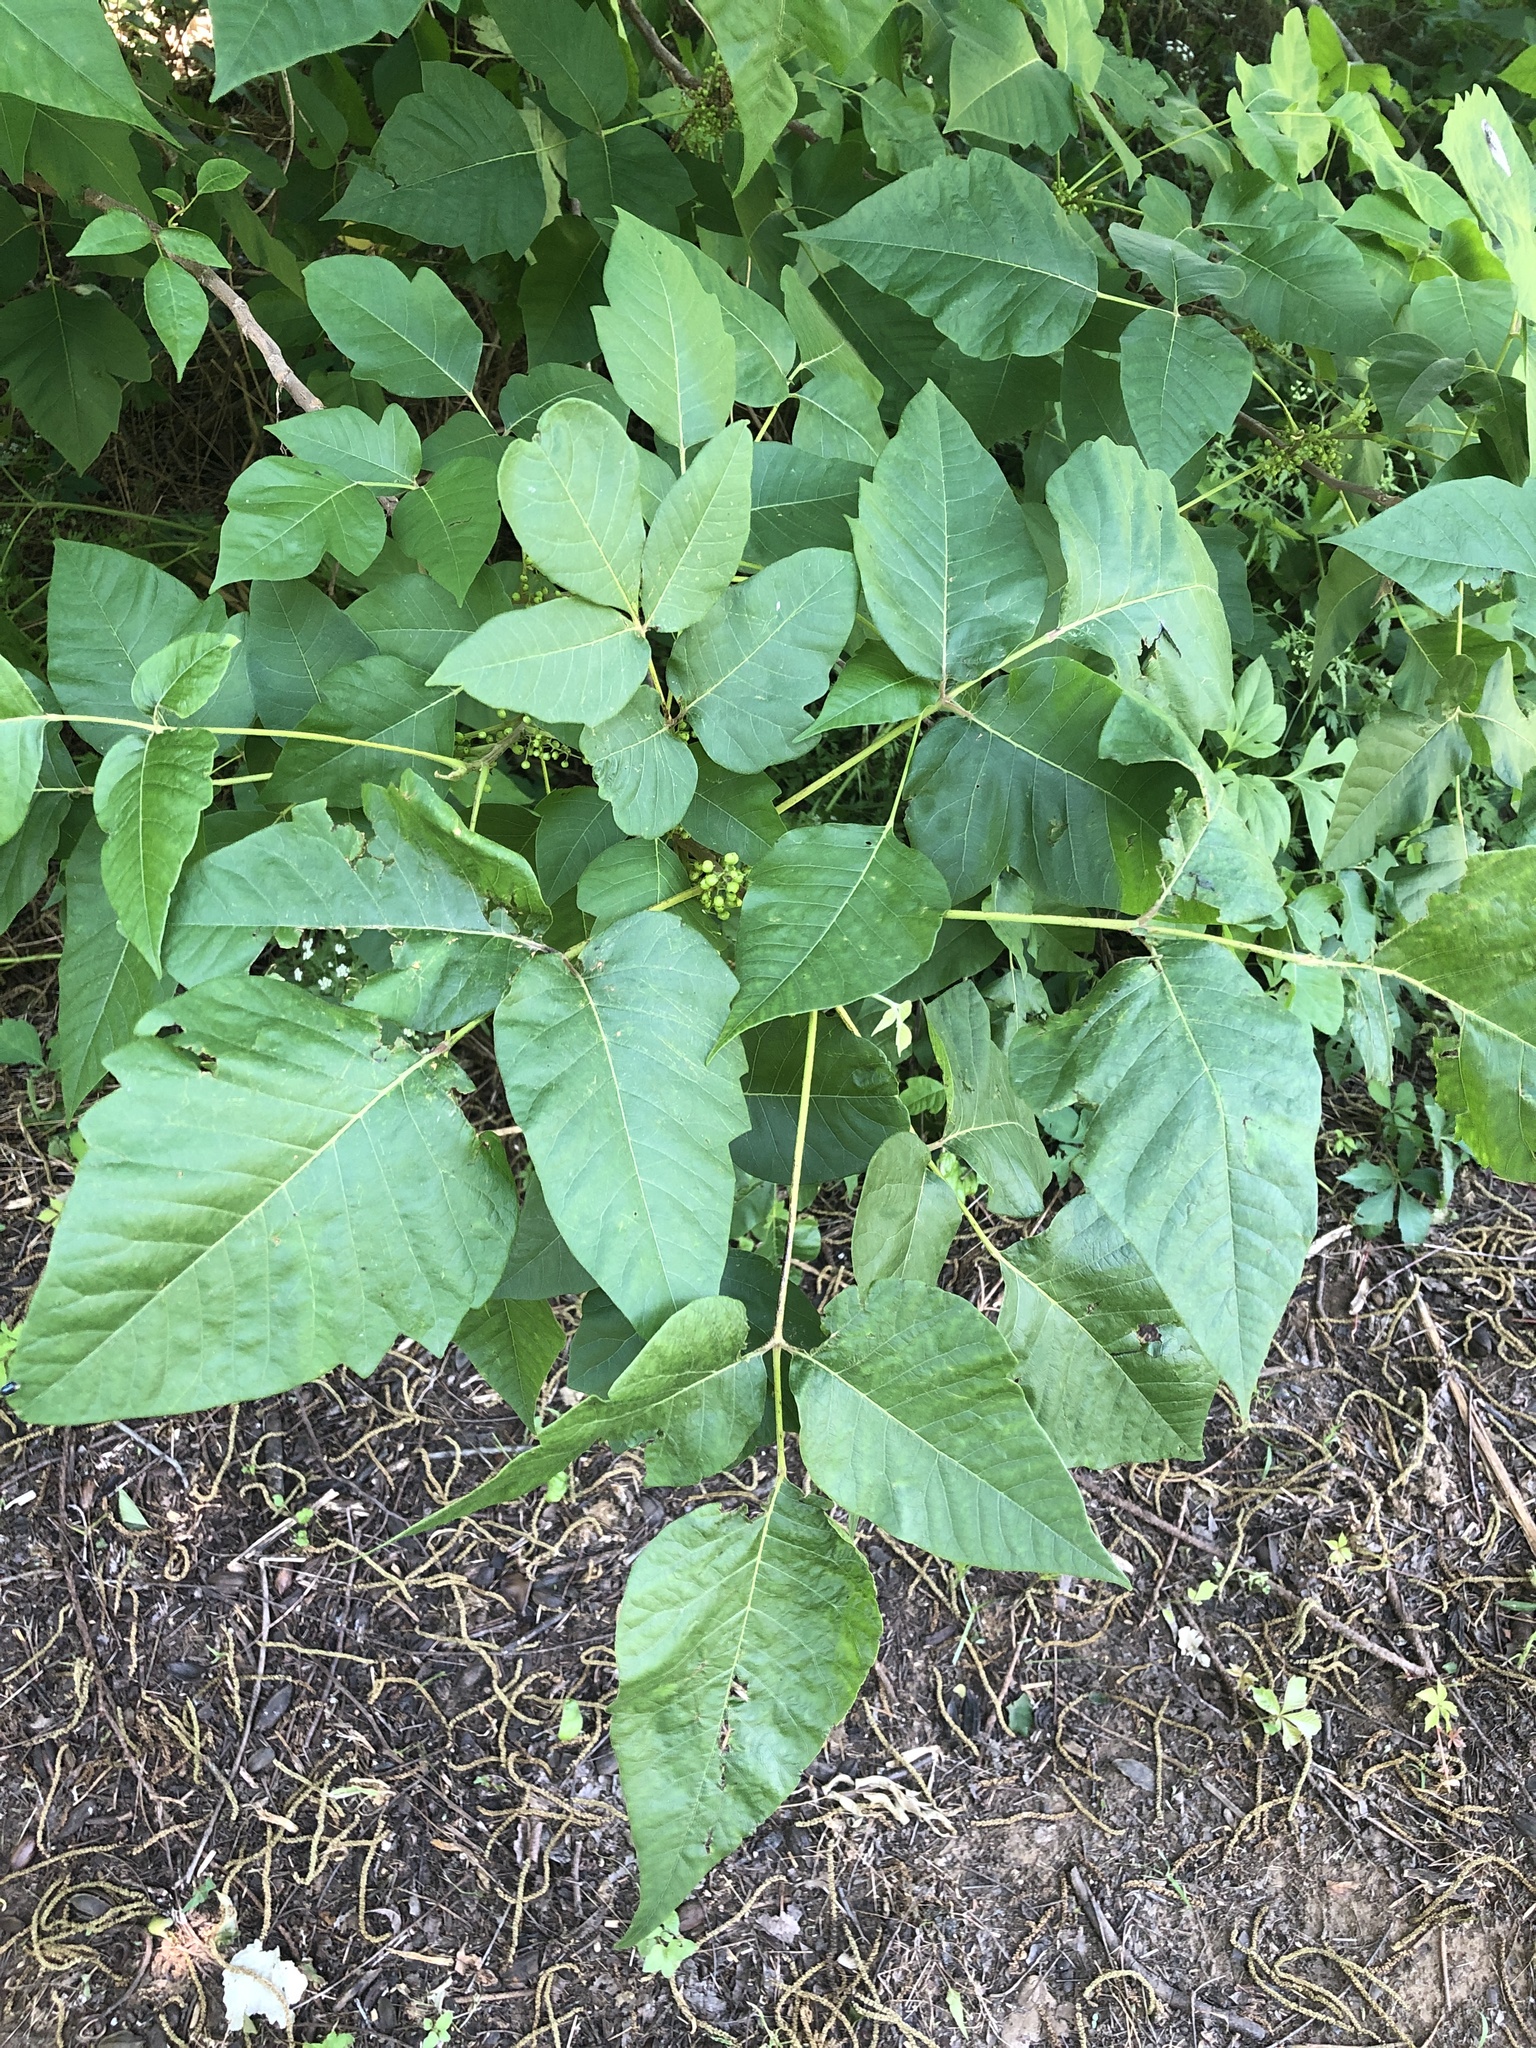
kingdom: Plantae
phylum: Tracheophyta
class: Magnoliopsida
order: Sapindales
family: Anacardiaceae
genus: Toxicodendron
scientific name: Toxicodendron radicans
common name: Poison ivy
